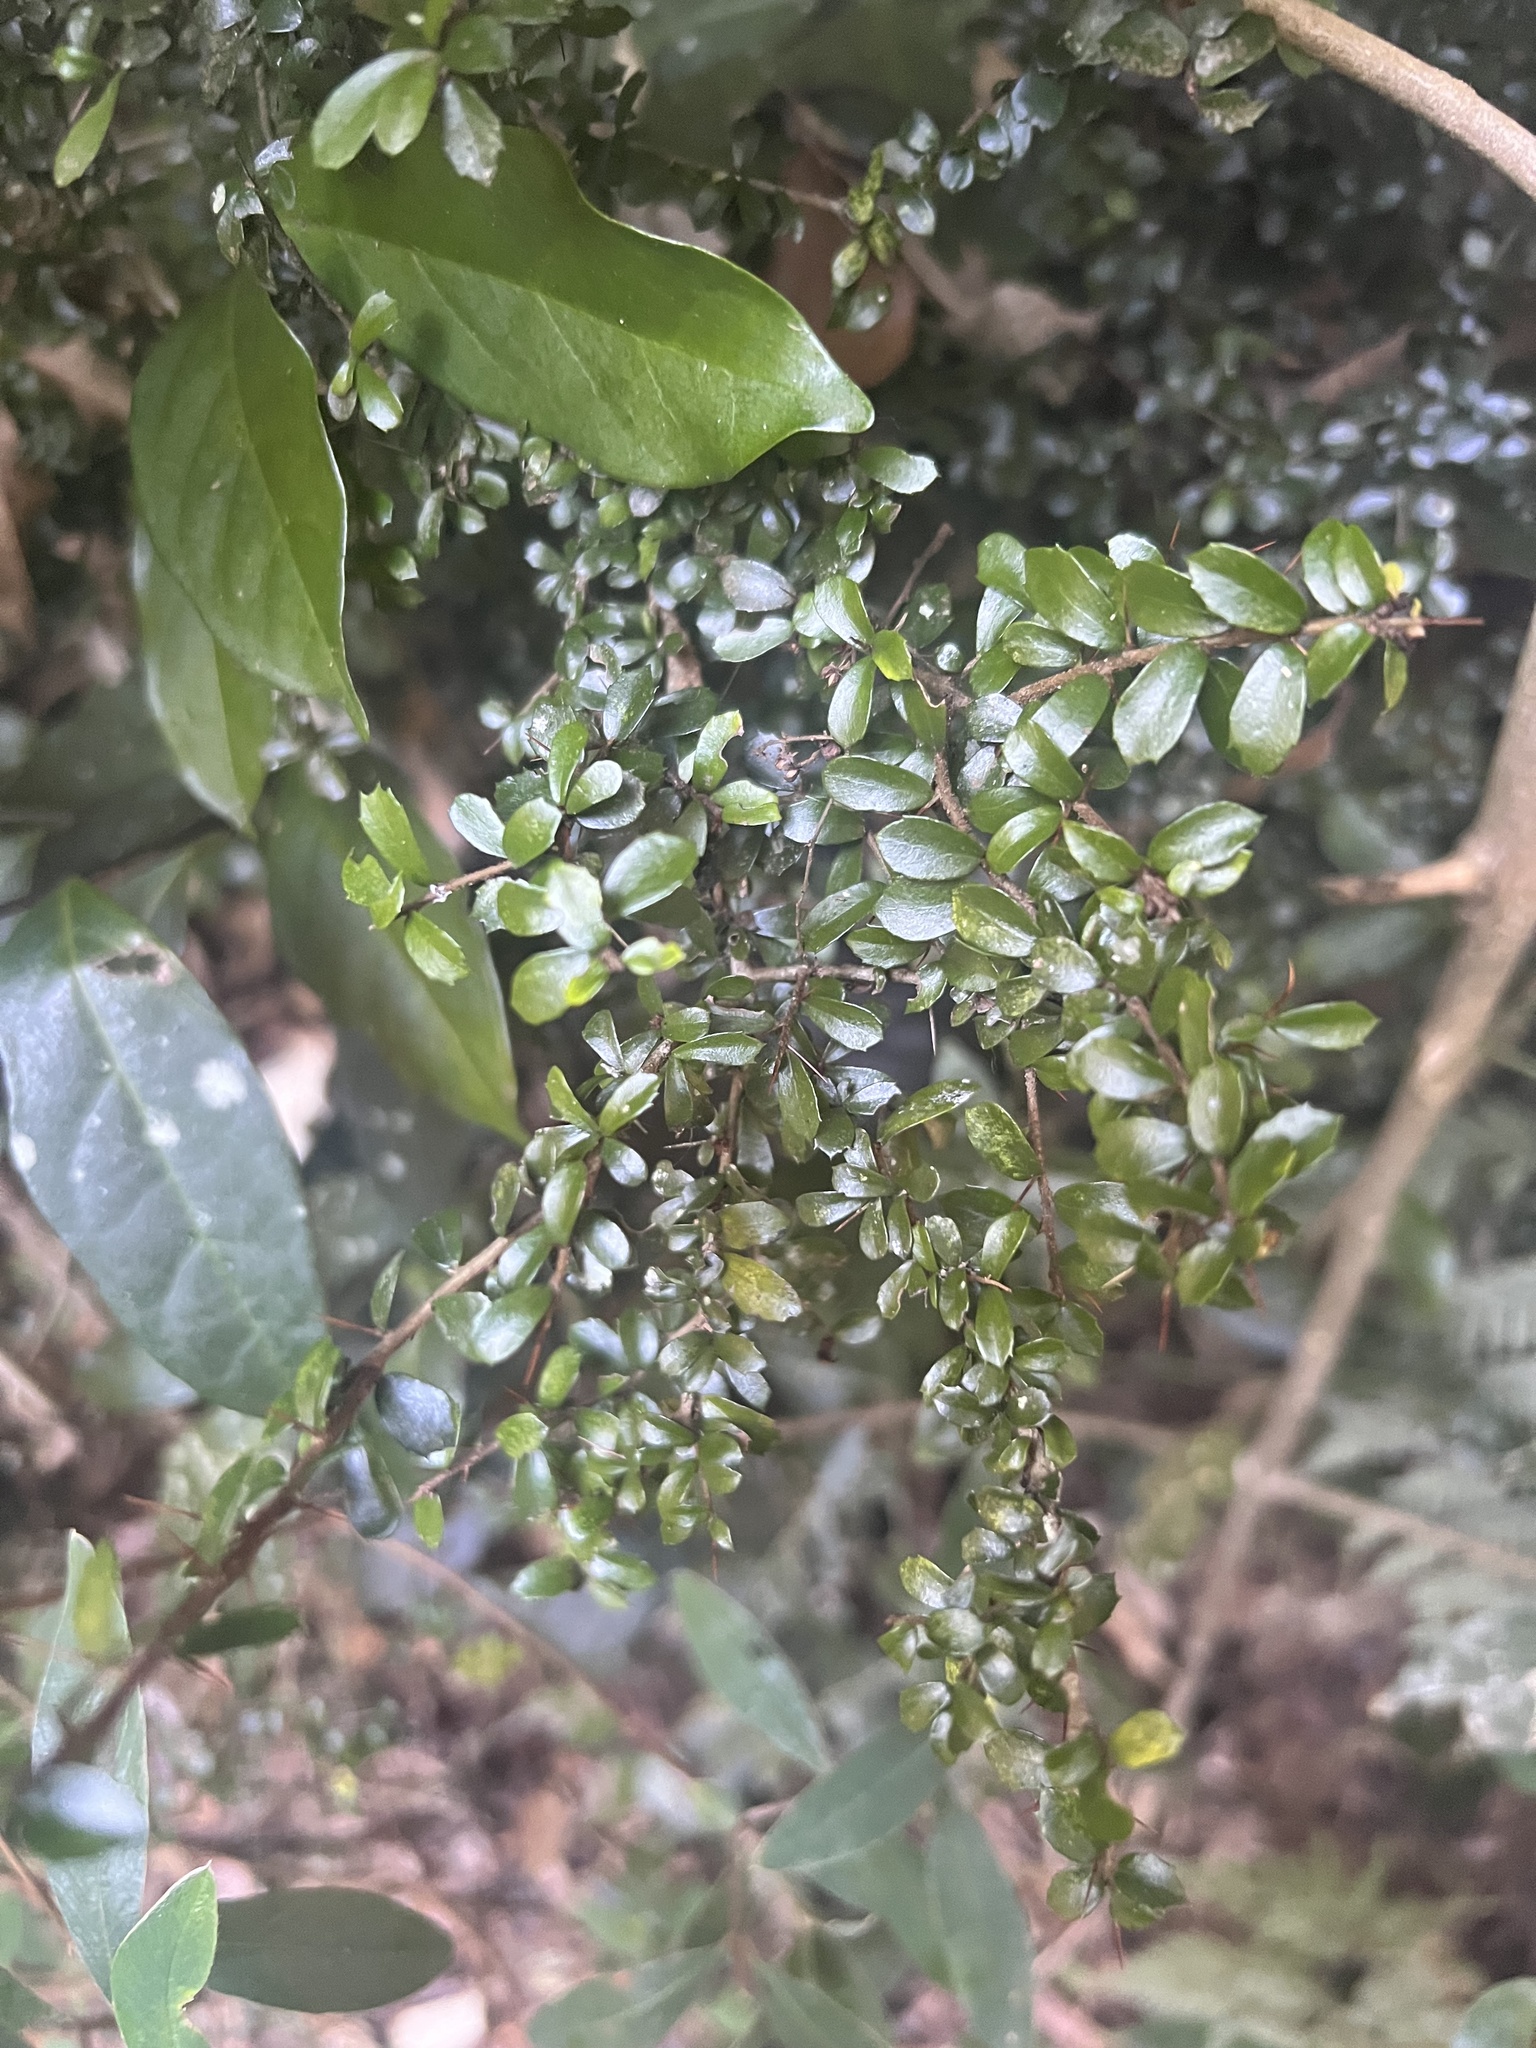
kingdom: Plantae
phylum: Tracheophyta
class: Magnoliopsida
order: Apiales
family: Pittosporaceae
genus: Pittosporum
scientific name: Pittosporum multiflorum
